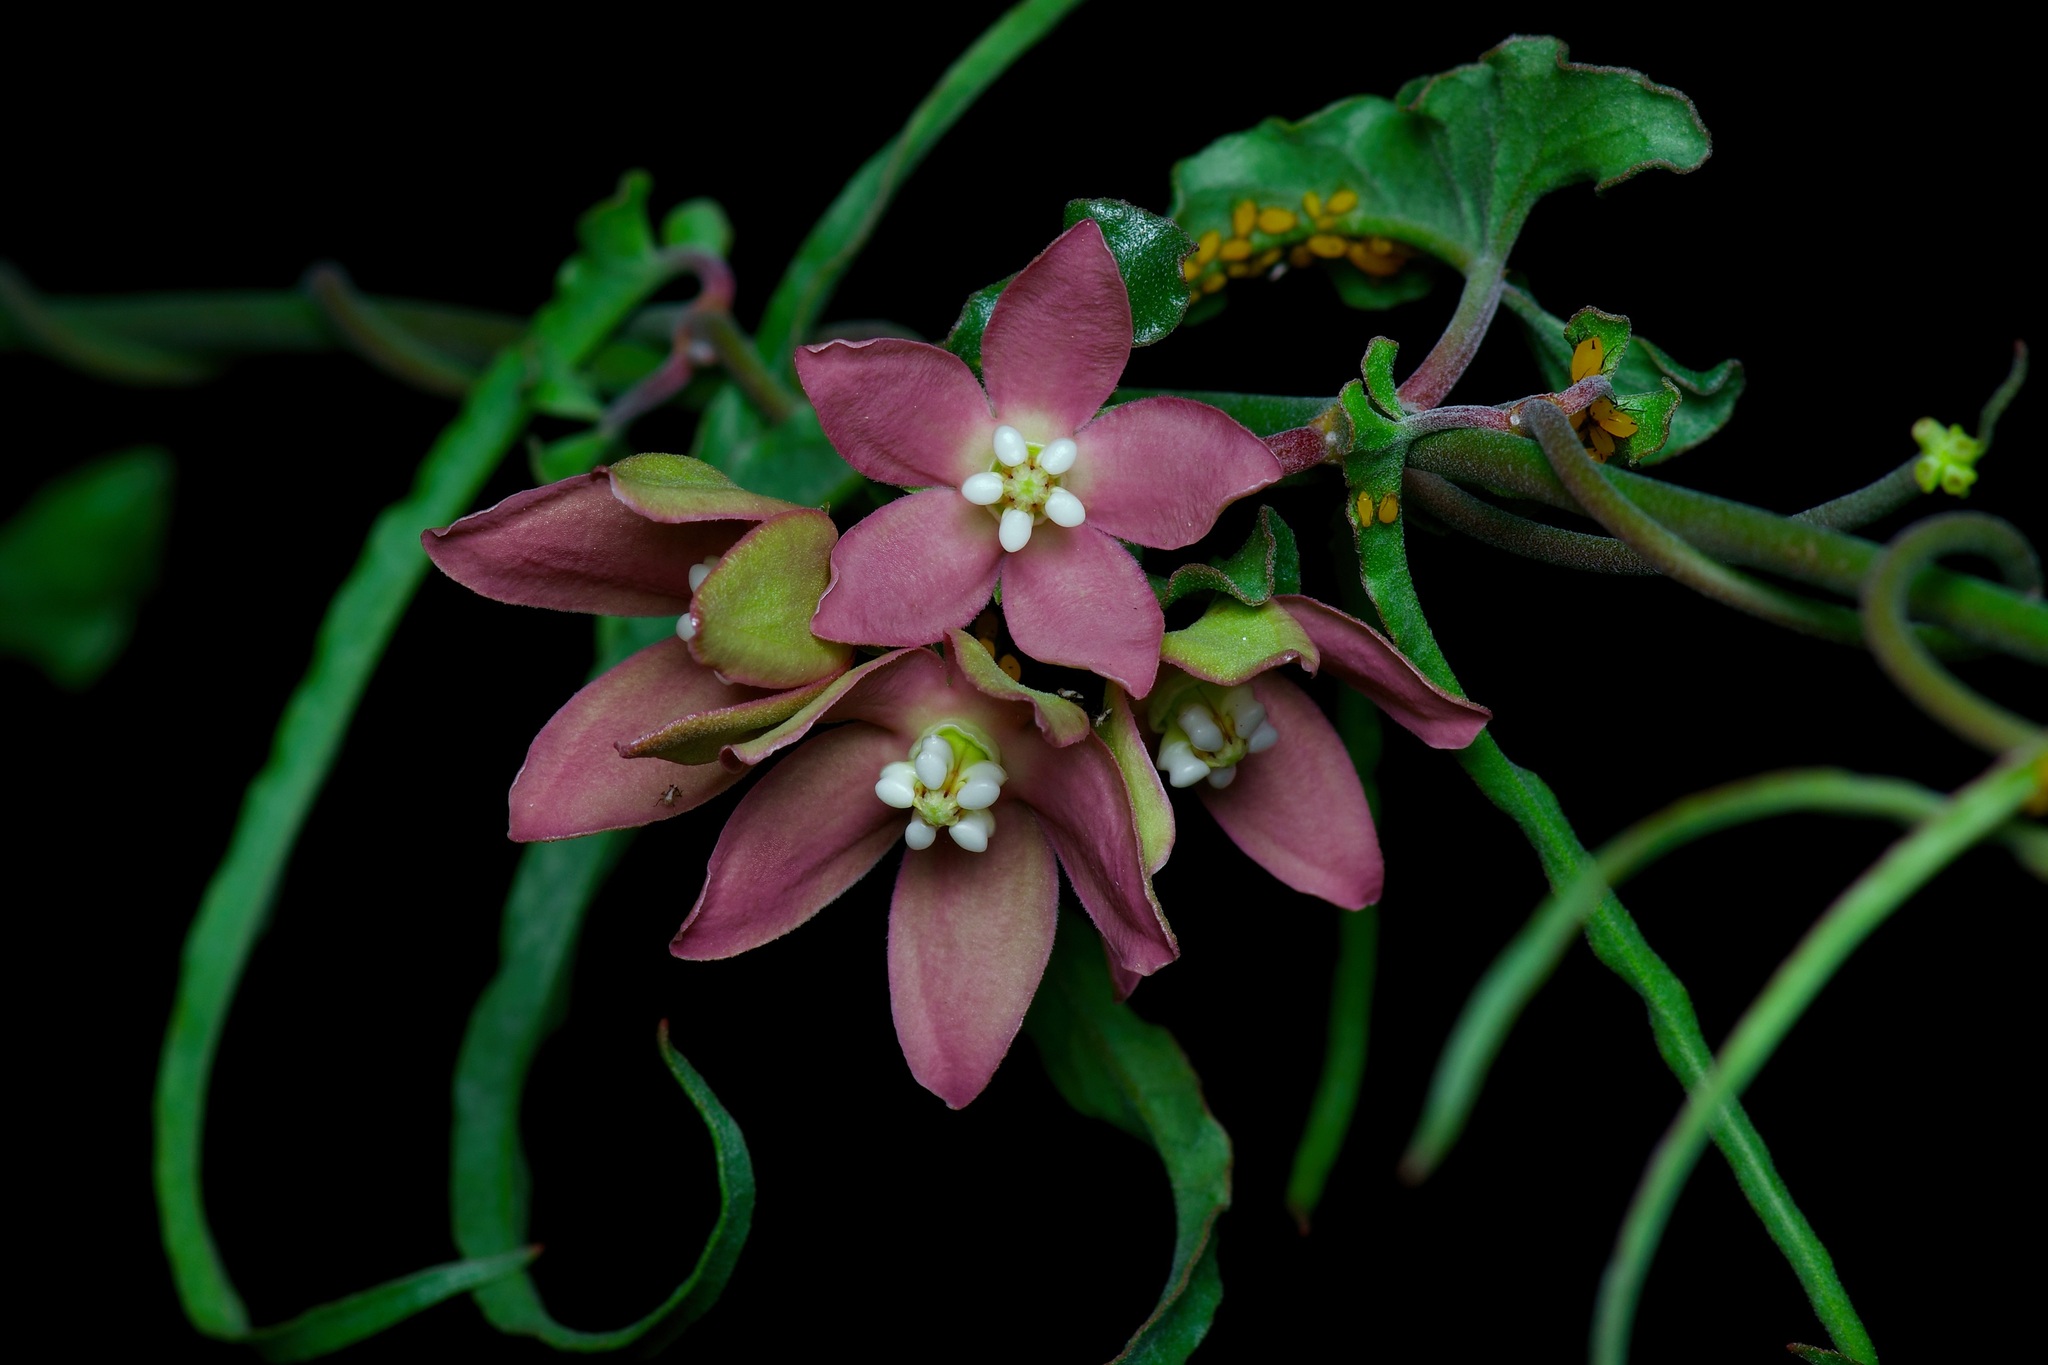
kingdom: Plantae
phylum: Tracheophyta
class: Magnoliopsida
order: Gentianales
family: Apocynaceae
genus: Funastrum
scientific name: Funastrum crispum
